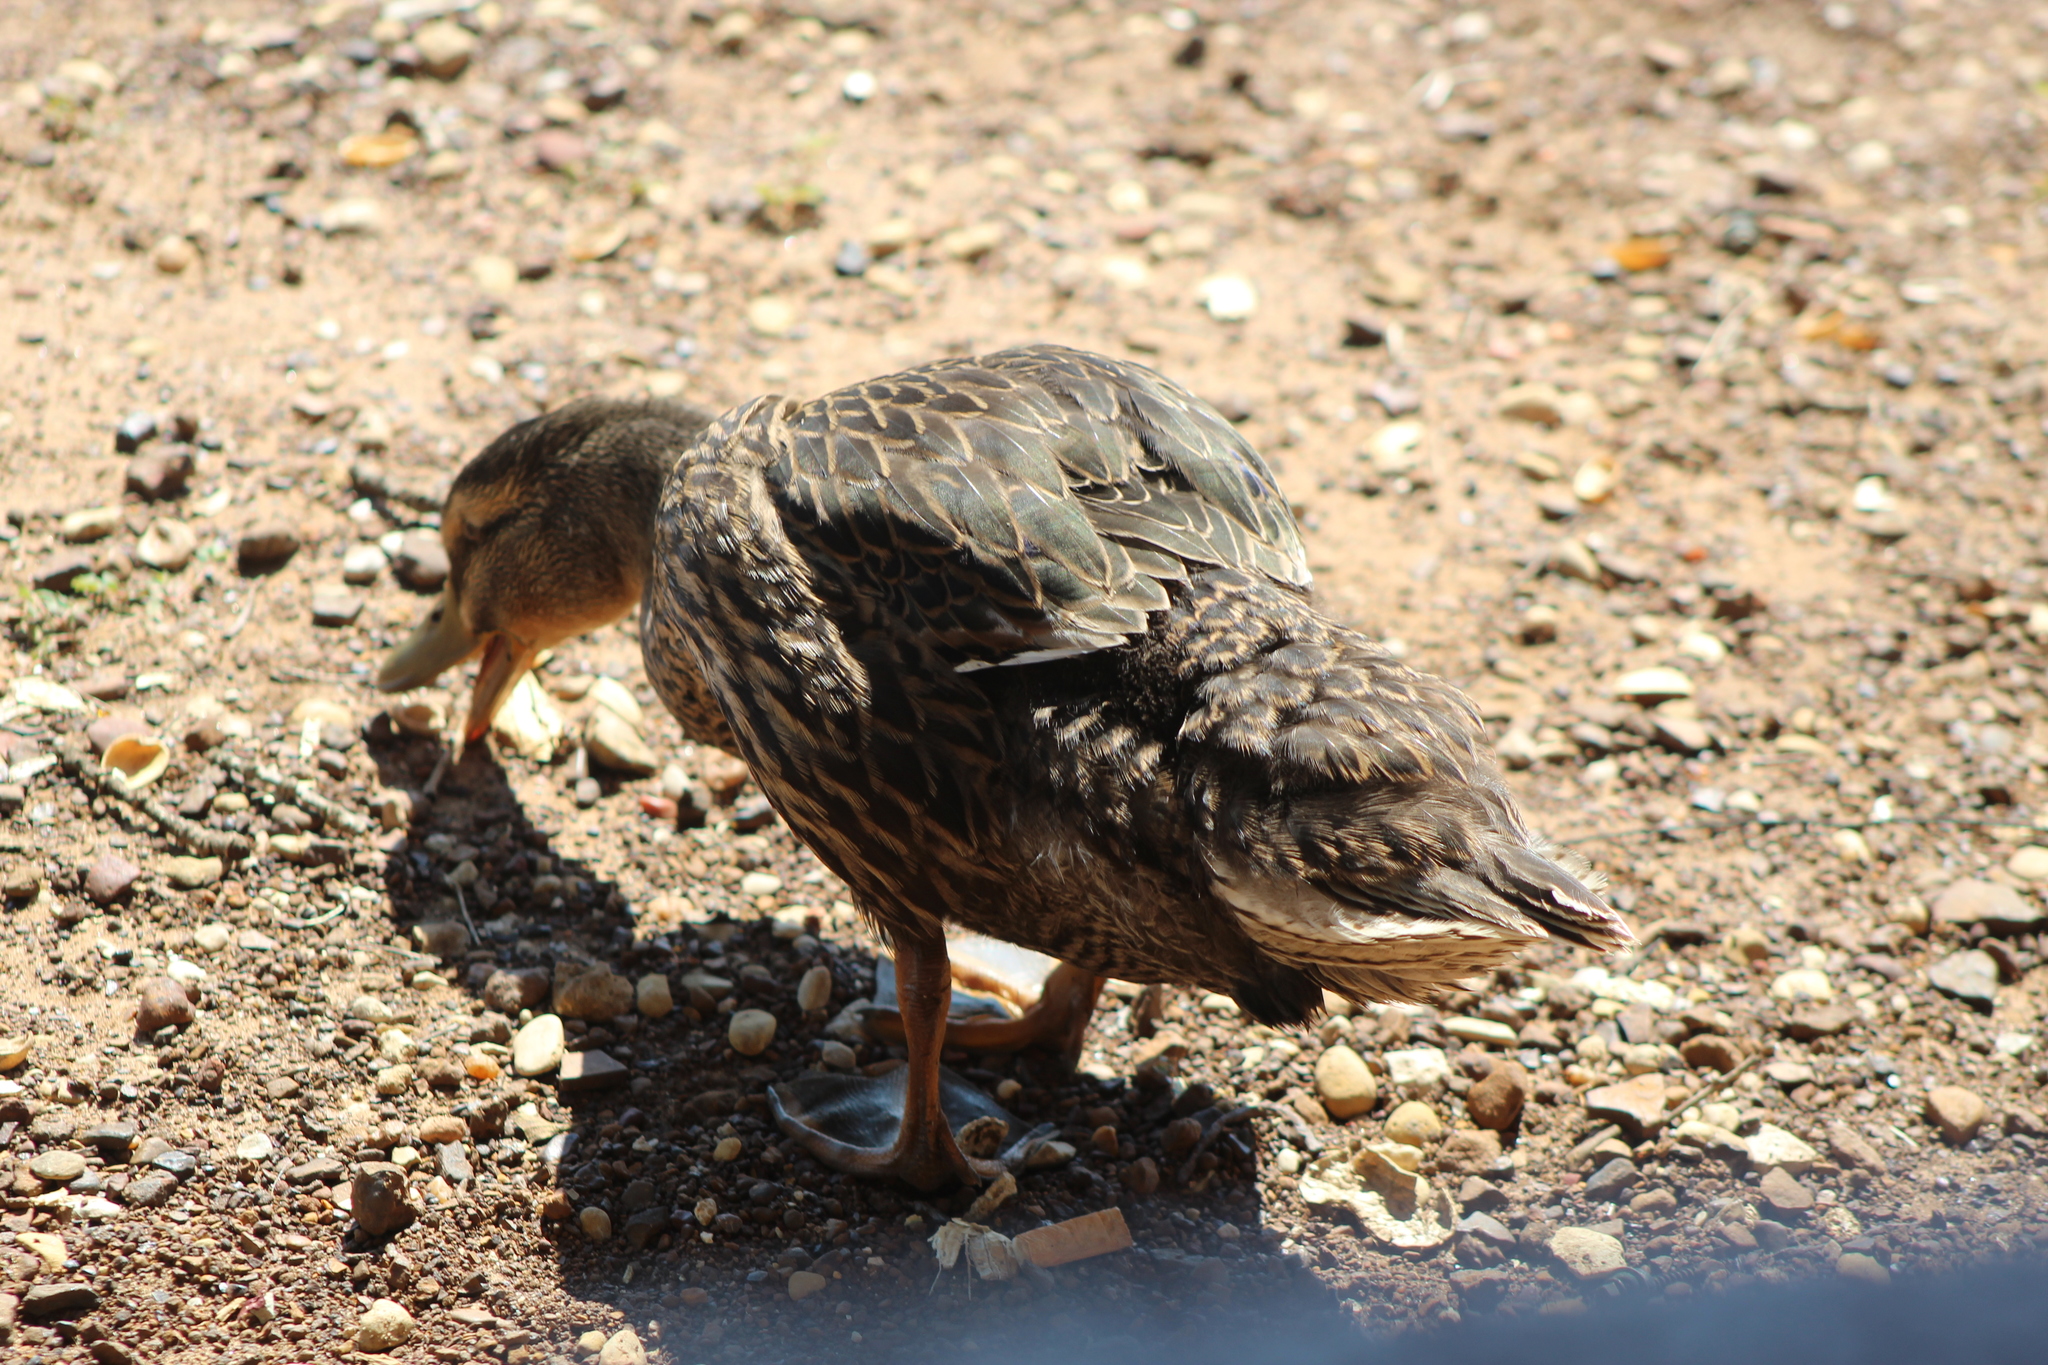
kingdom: Animalia
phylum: Chordata
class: Aves
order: Anseriformes
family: Anatidae
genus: Anas
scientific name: Anas platyrhynchos
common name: Mallard
